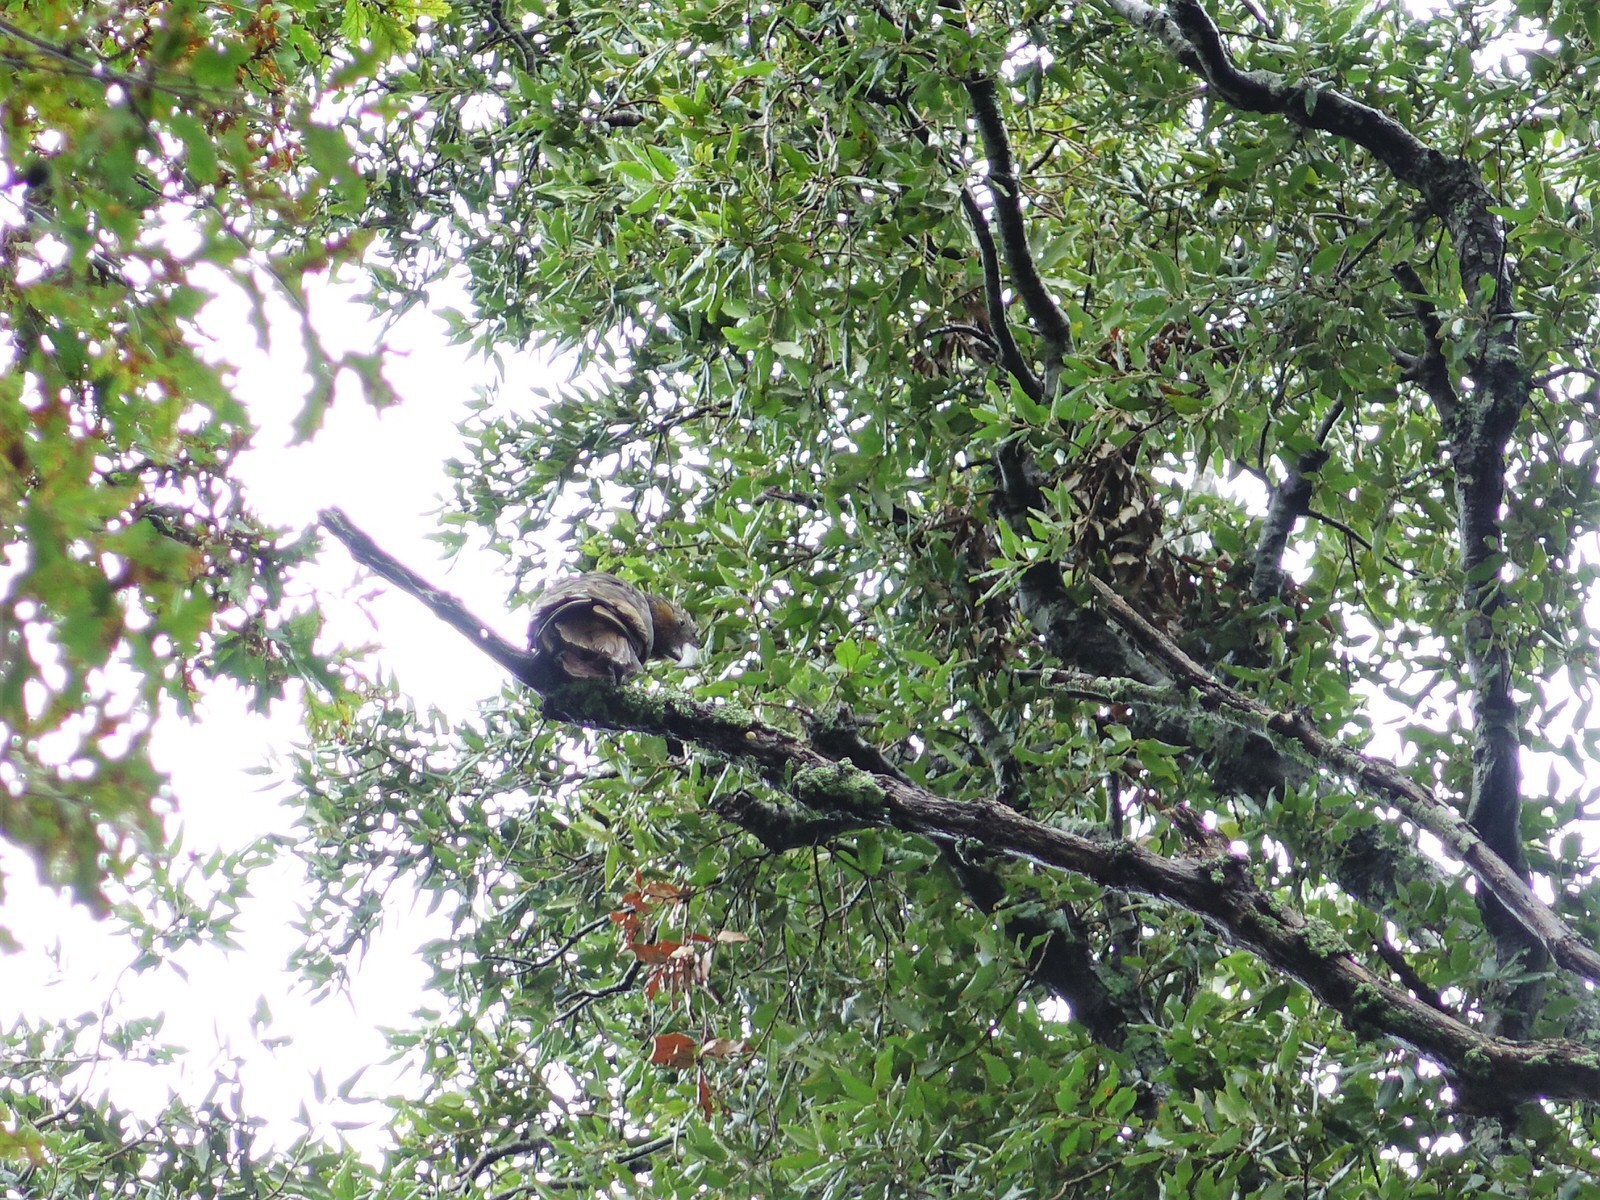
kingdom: Animalia
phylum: Chordata
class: Aves
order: Psittaciformes
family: Psittacidae
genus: Nestor
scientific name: Nestor meridionalis
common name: New zealand kaka
